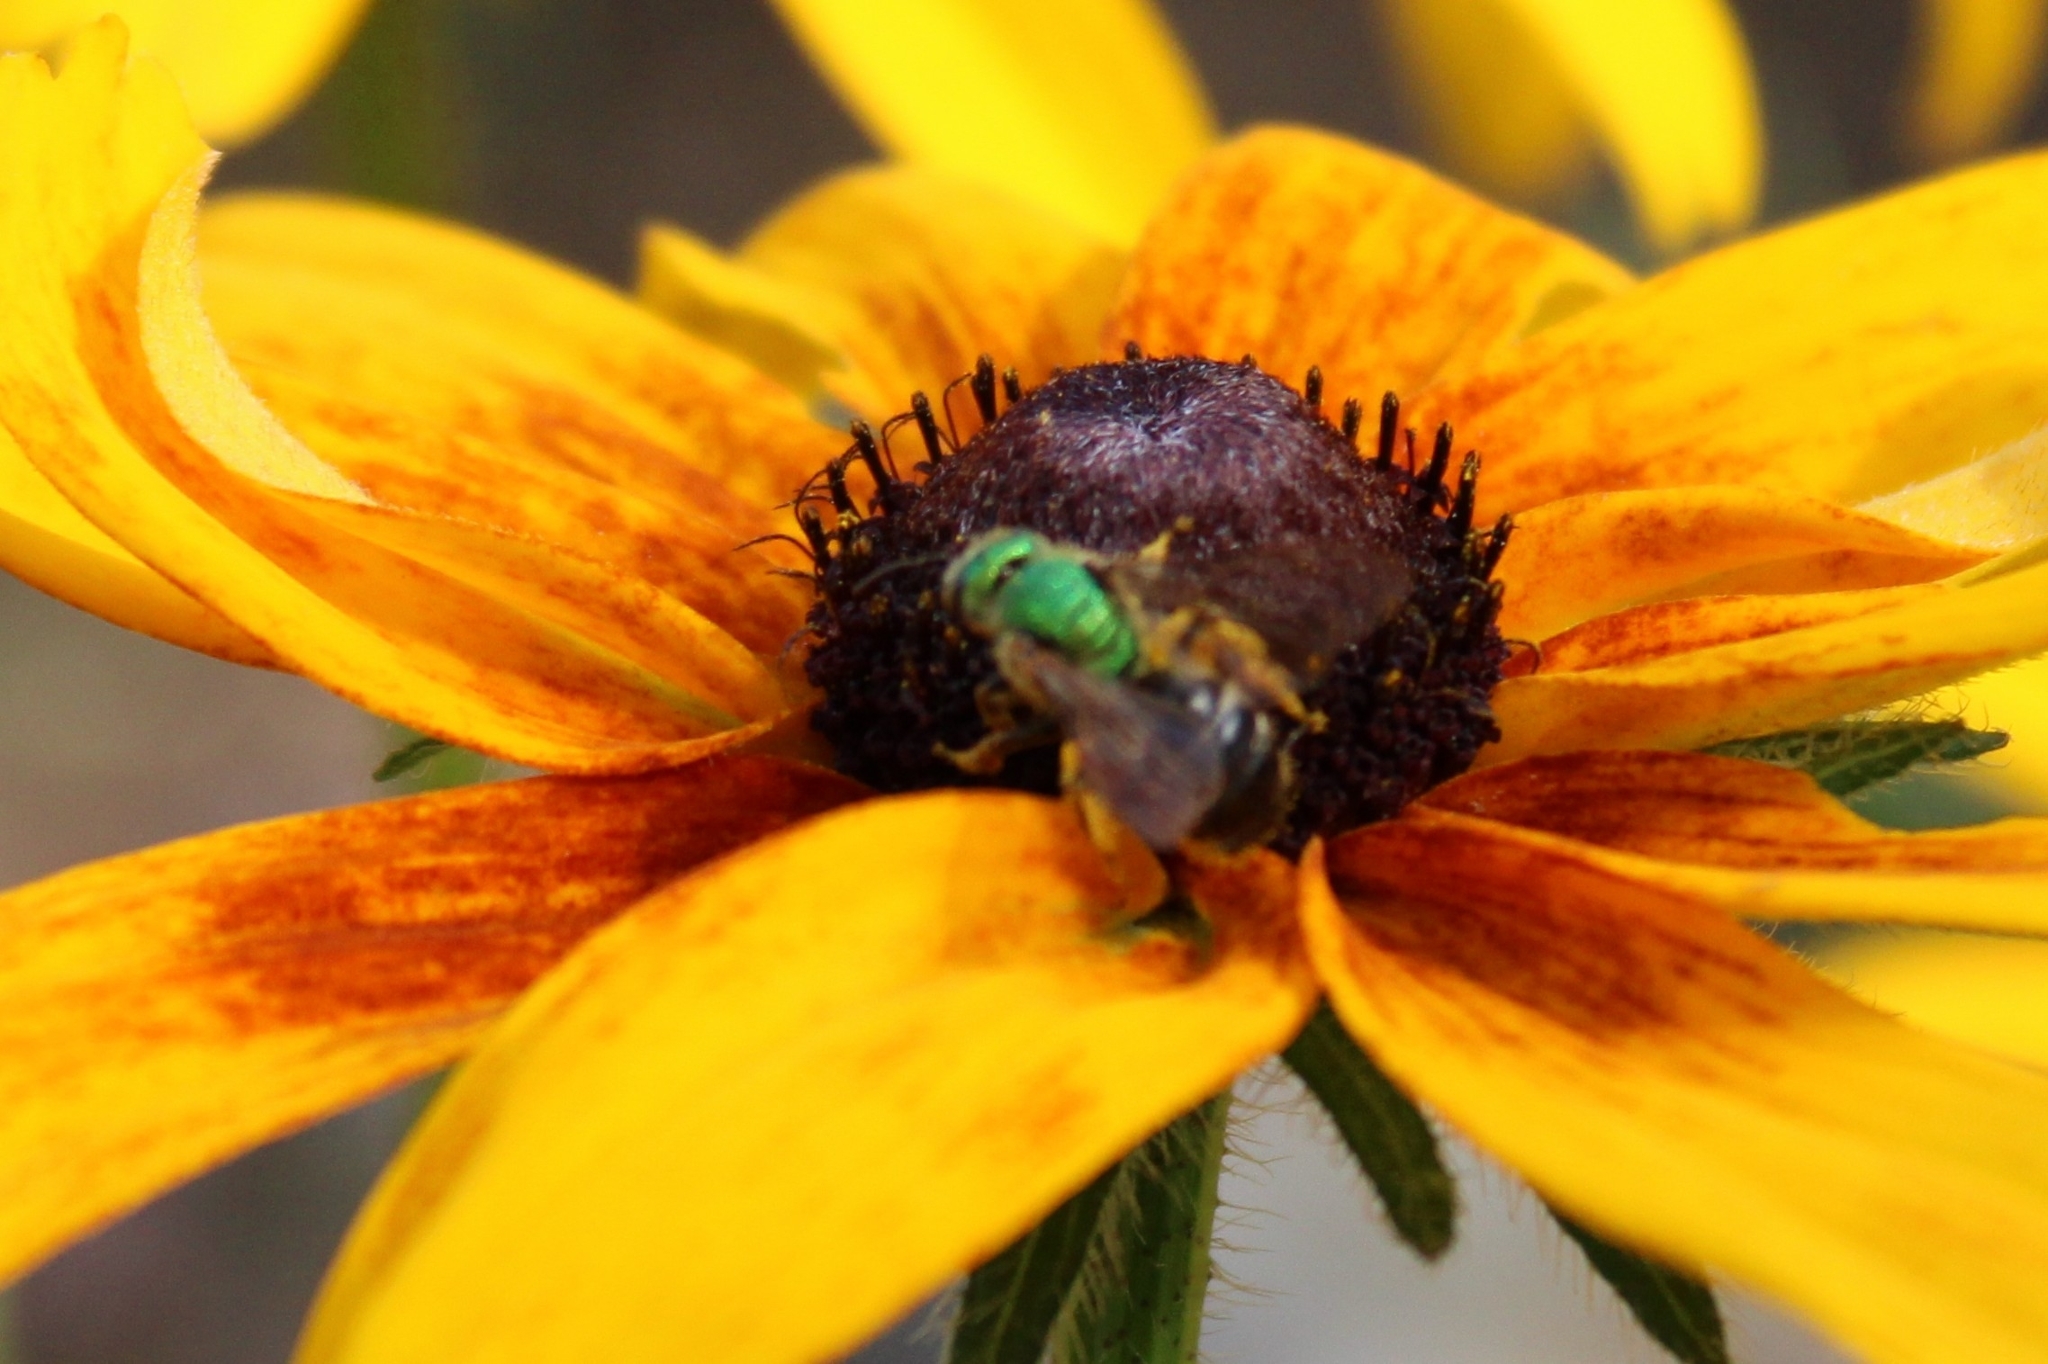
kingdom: Animalia
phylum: Arthropoda
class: Insecta
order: Hymenoptera
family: Halictidae
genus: Agapostemon
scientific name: Agapostemon virescens
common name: Bicolored striped sweat bee
